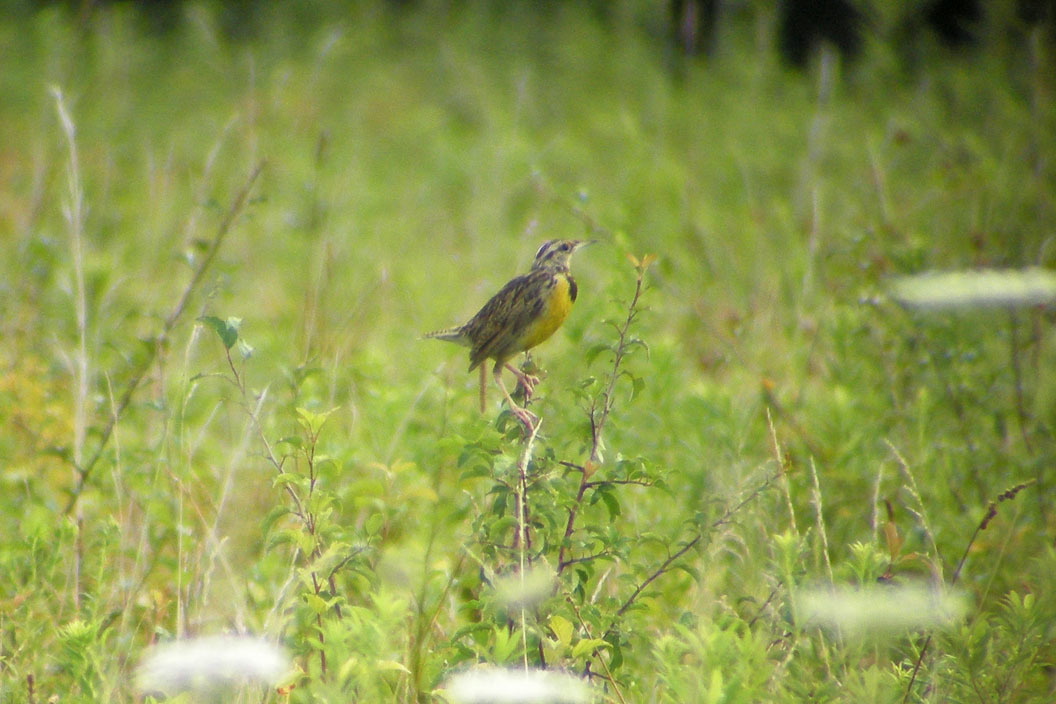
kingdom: Animalia
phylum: Chordata
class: Aves
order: Passeriformes
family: Icteridae
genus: Sturnella
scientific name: Sturnella magna
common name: Eastern meadowlark
